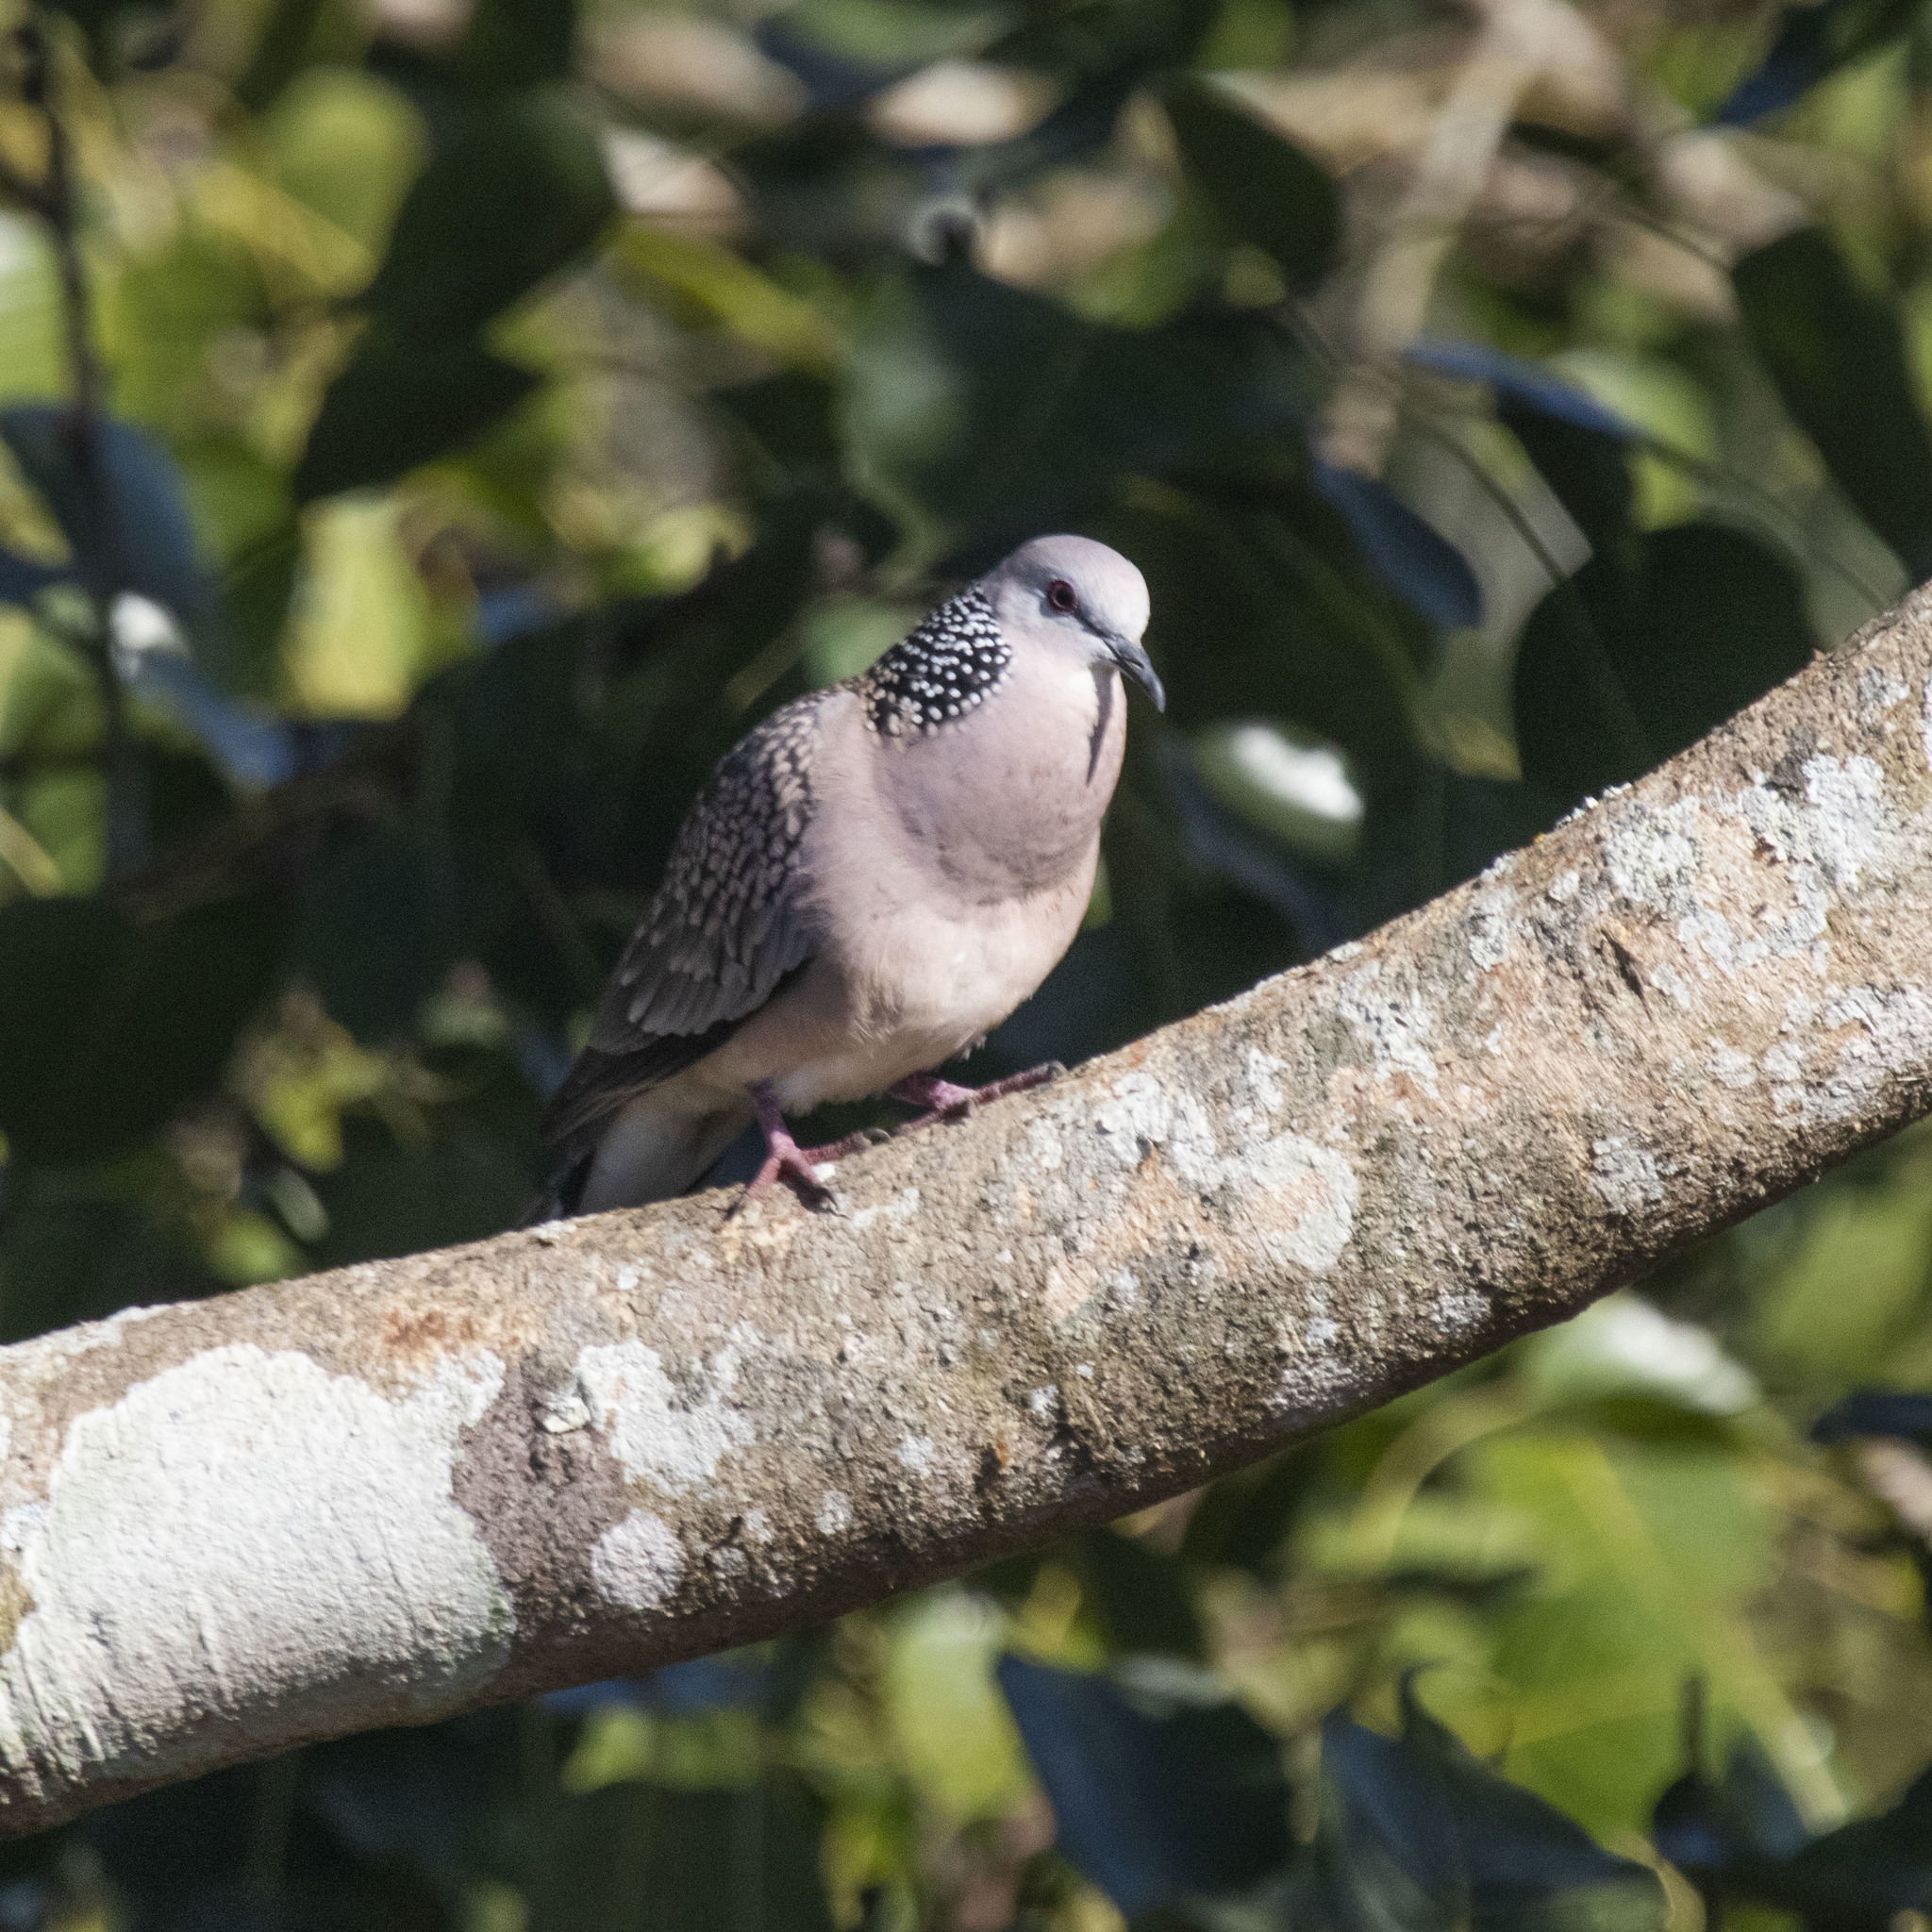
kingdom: Animalia
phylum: Chordata
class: Aves
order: Columbiformes
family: Columbidae
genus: Spilopelia
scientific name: Spilopelia chinensis
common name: Spotted dove
